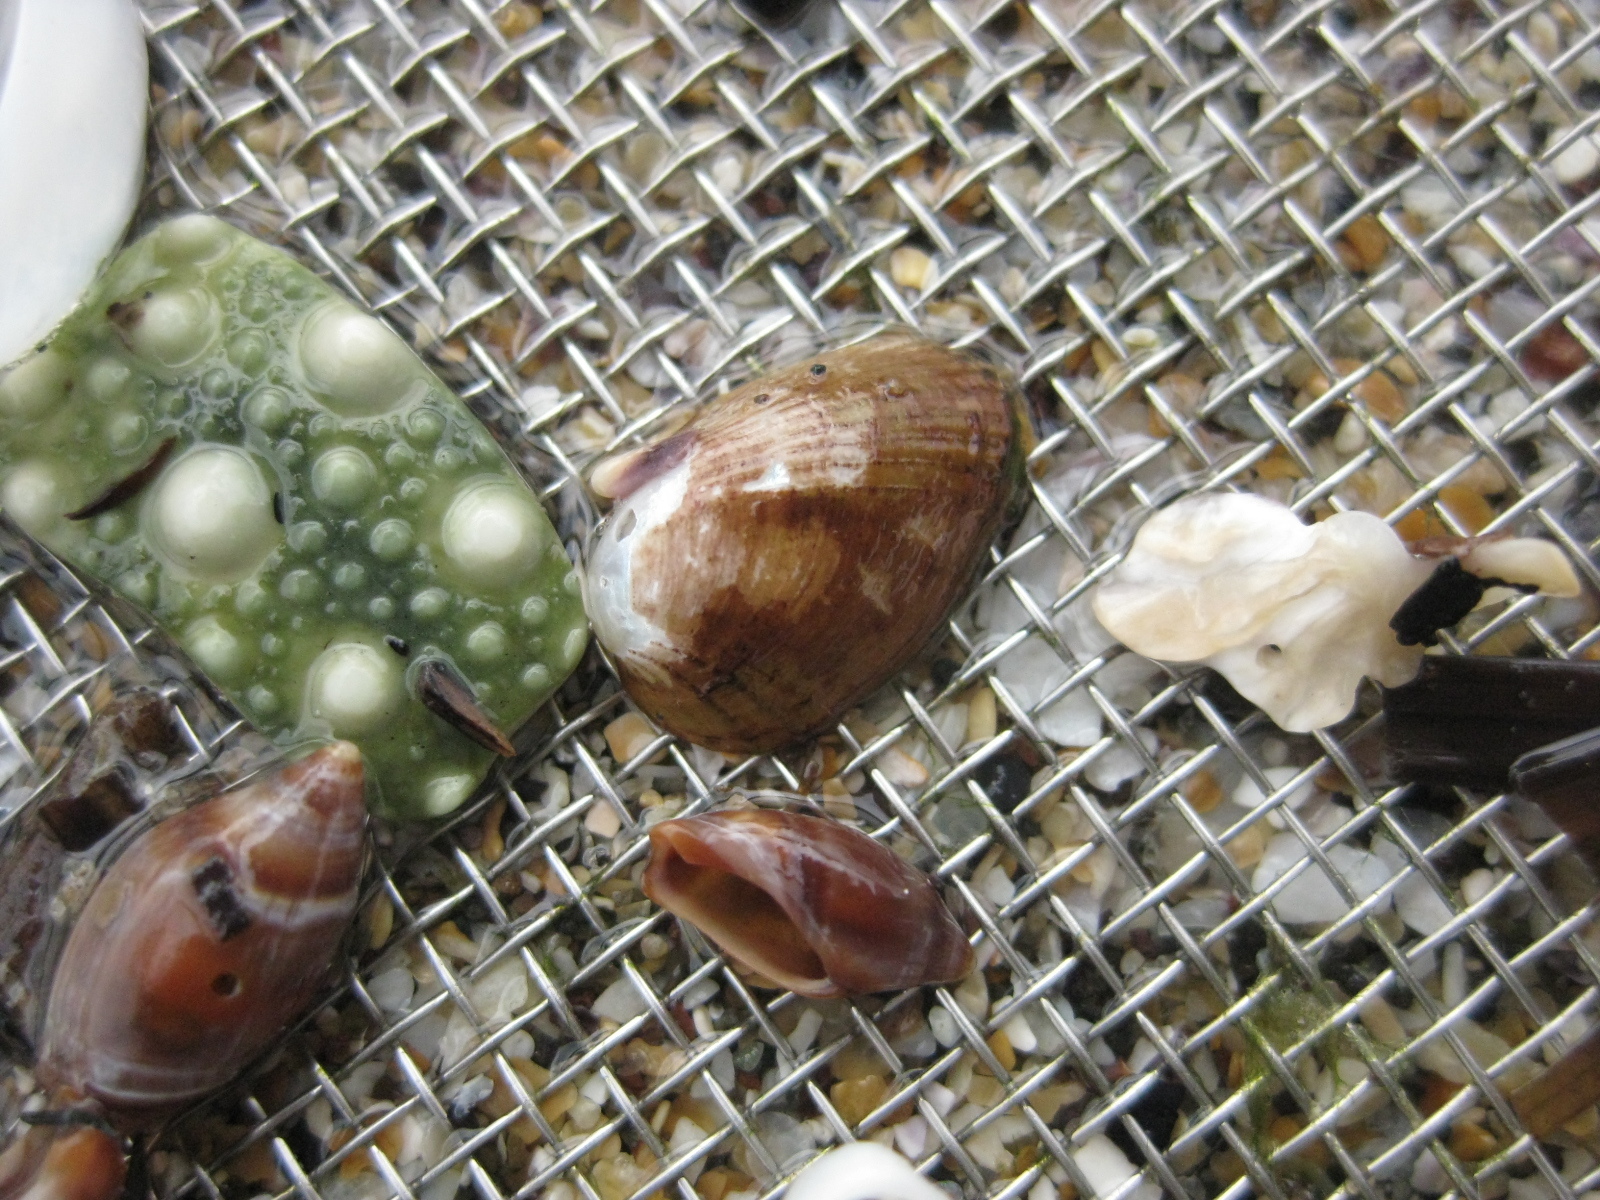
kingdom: Animalia
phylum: Mollusca
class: Bivalvia
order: Mytilida
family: Mytilidae
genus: Musculus
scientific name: Musculus impactus
